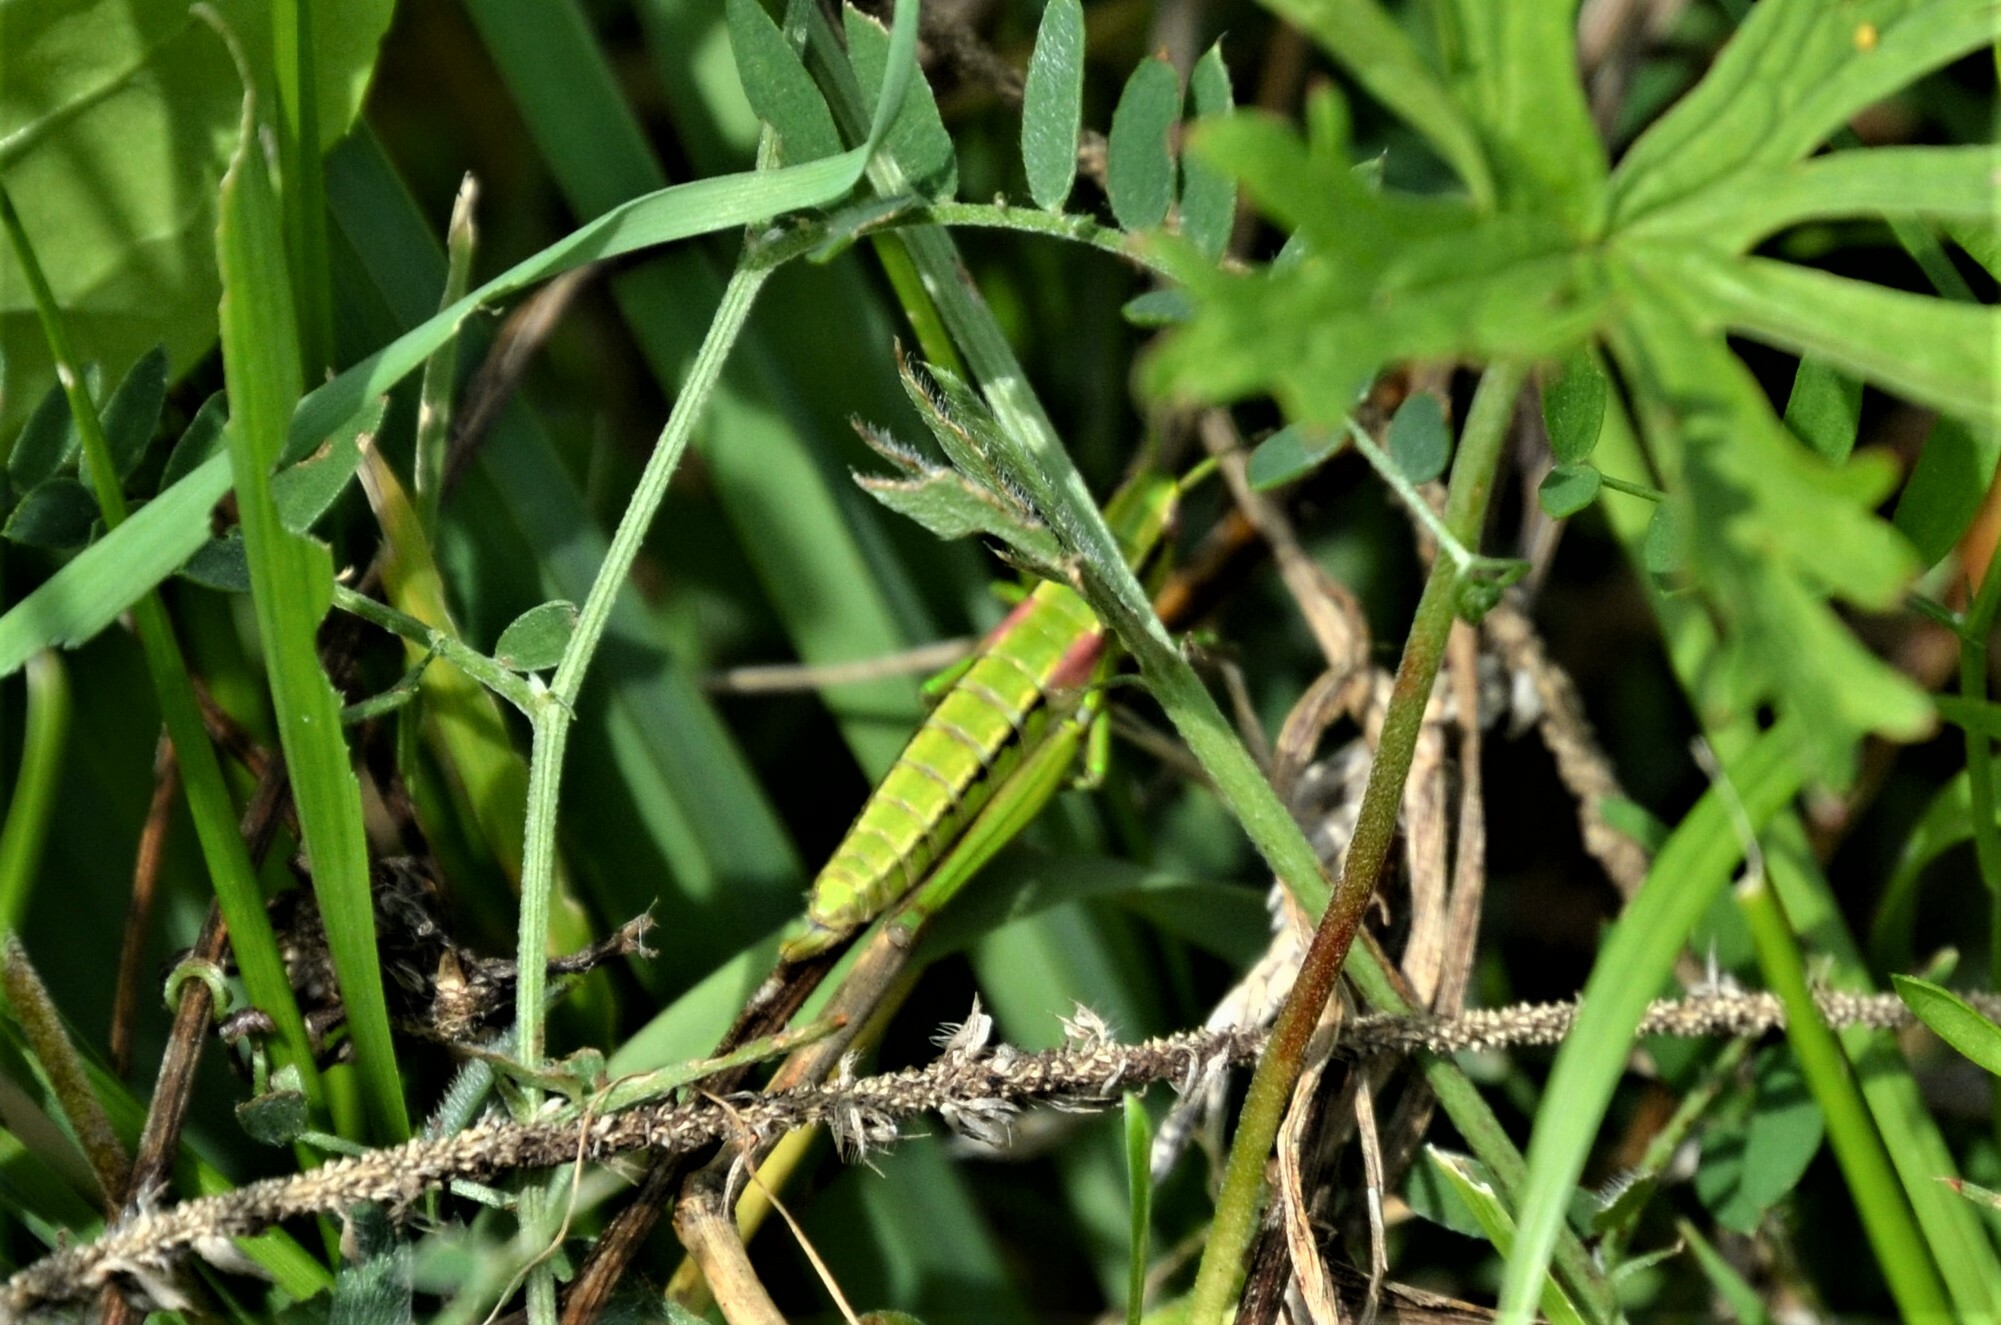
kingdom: Animalia
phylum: Arthropoda
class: Insecta
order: Orthoptera
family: Acrididae
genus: Euthystira
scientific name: Euthystira brachyptera
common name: Small gold grasshopper
